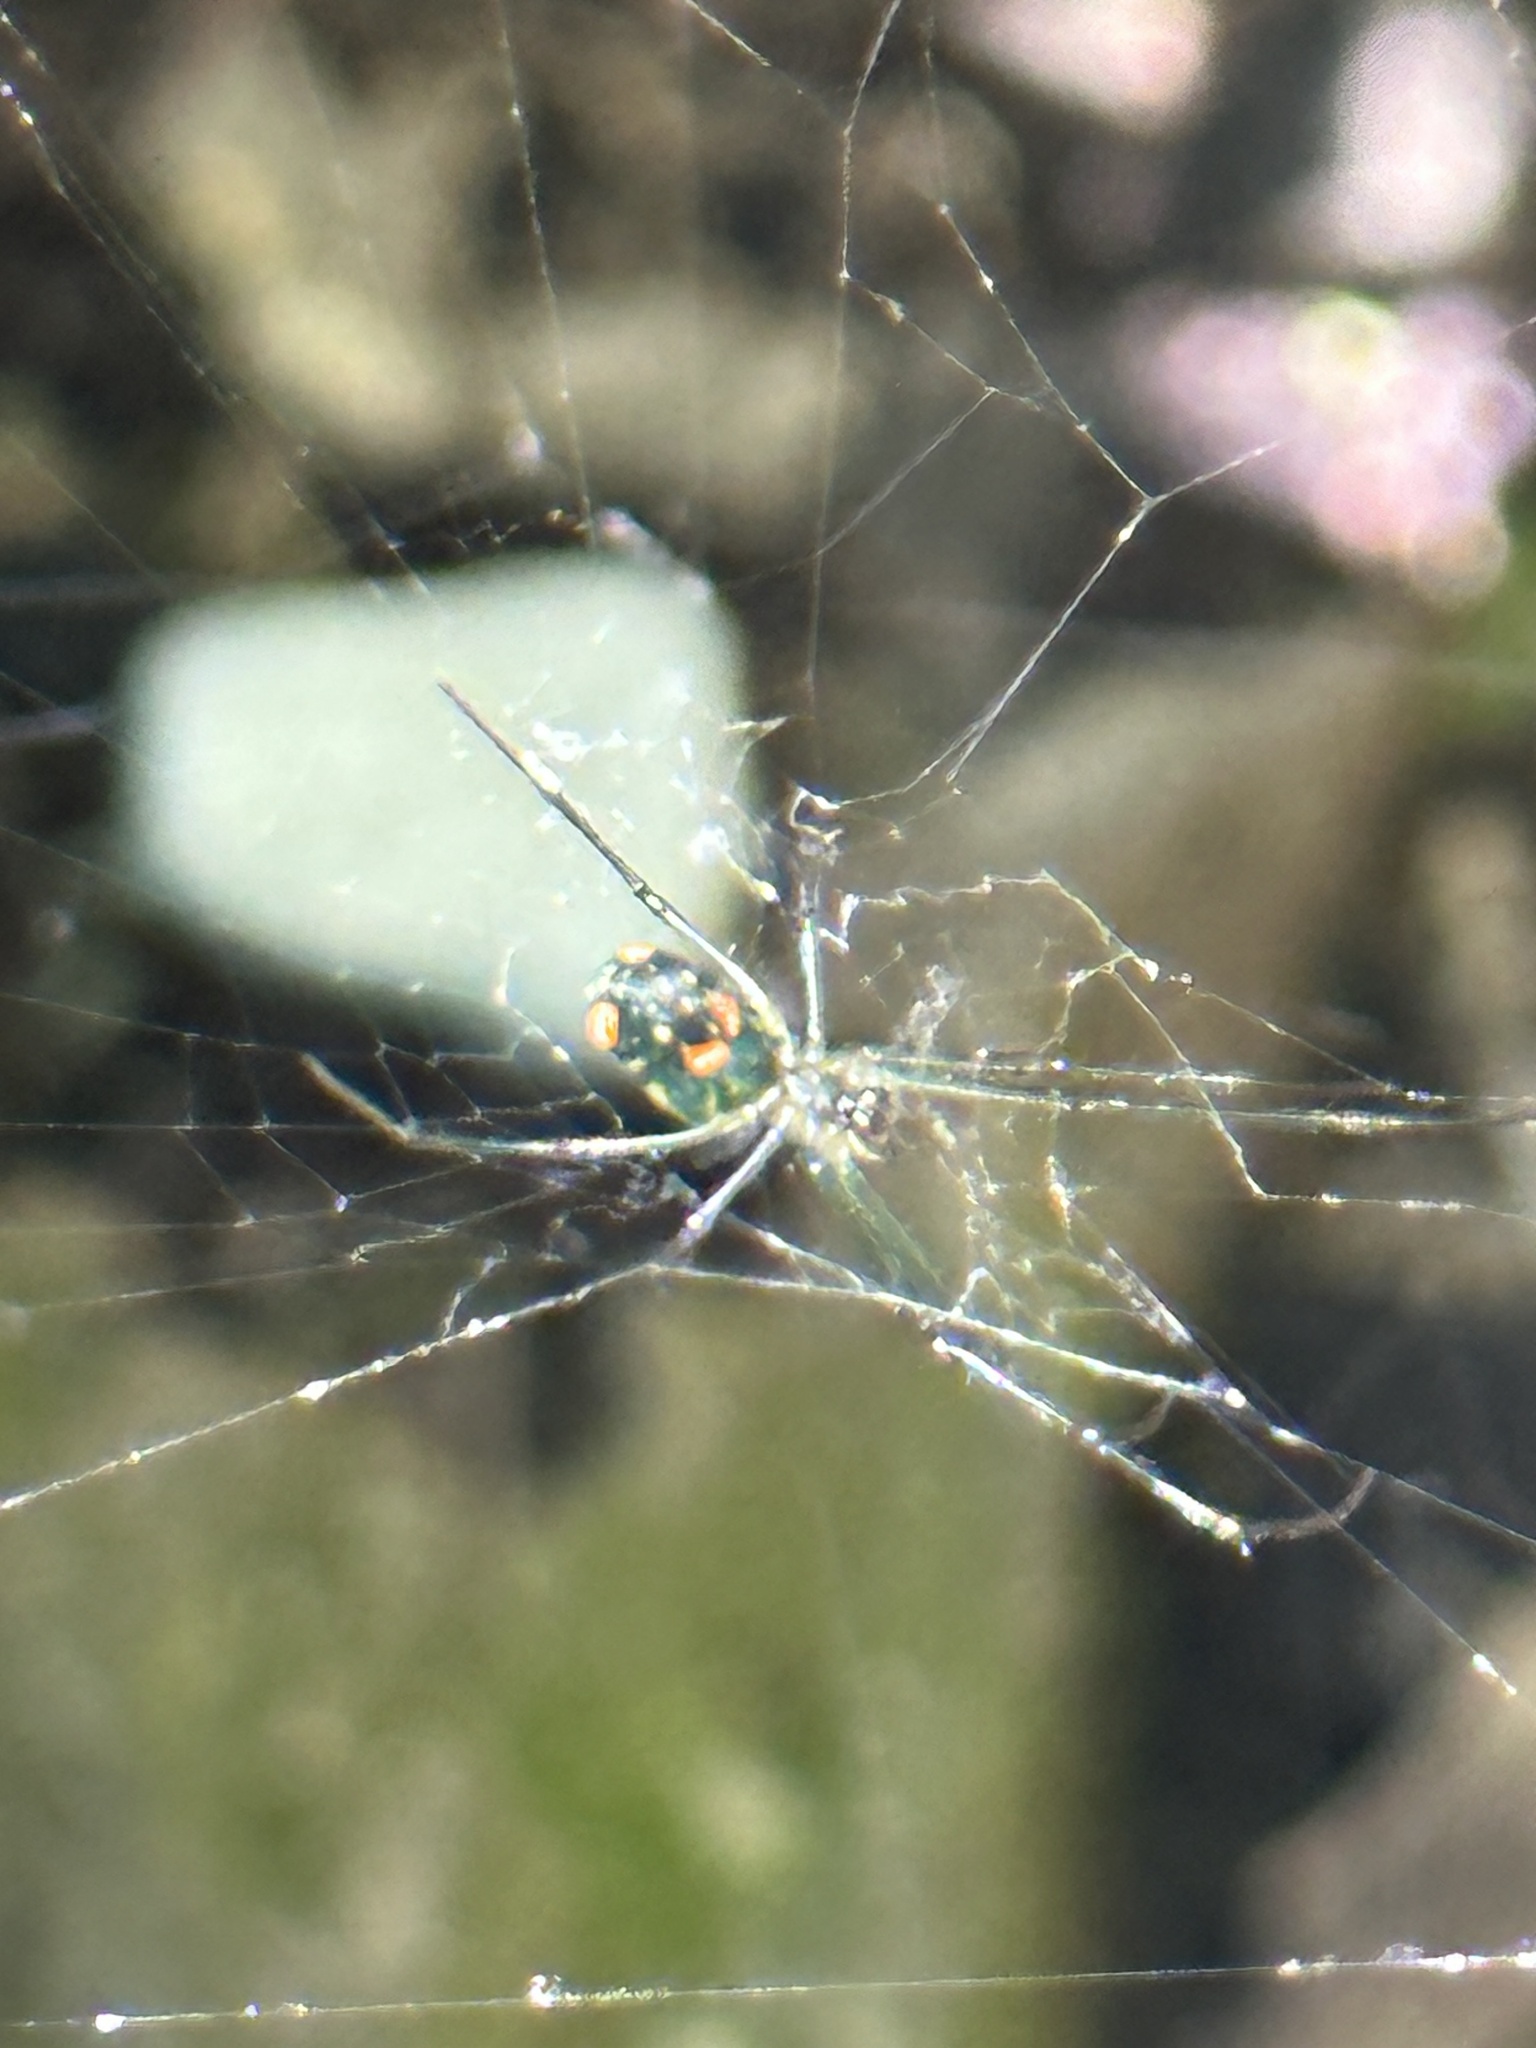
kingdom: Animalia
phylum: Arthropoda
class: Arachnida
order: Araneae
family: Tetragnathidae
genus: Leucauge
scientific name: Leucauge argyrobapta
